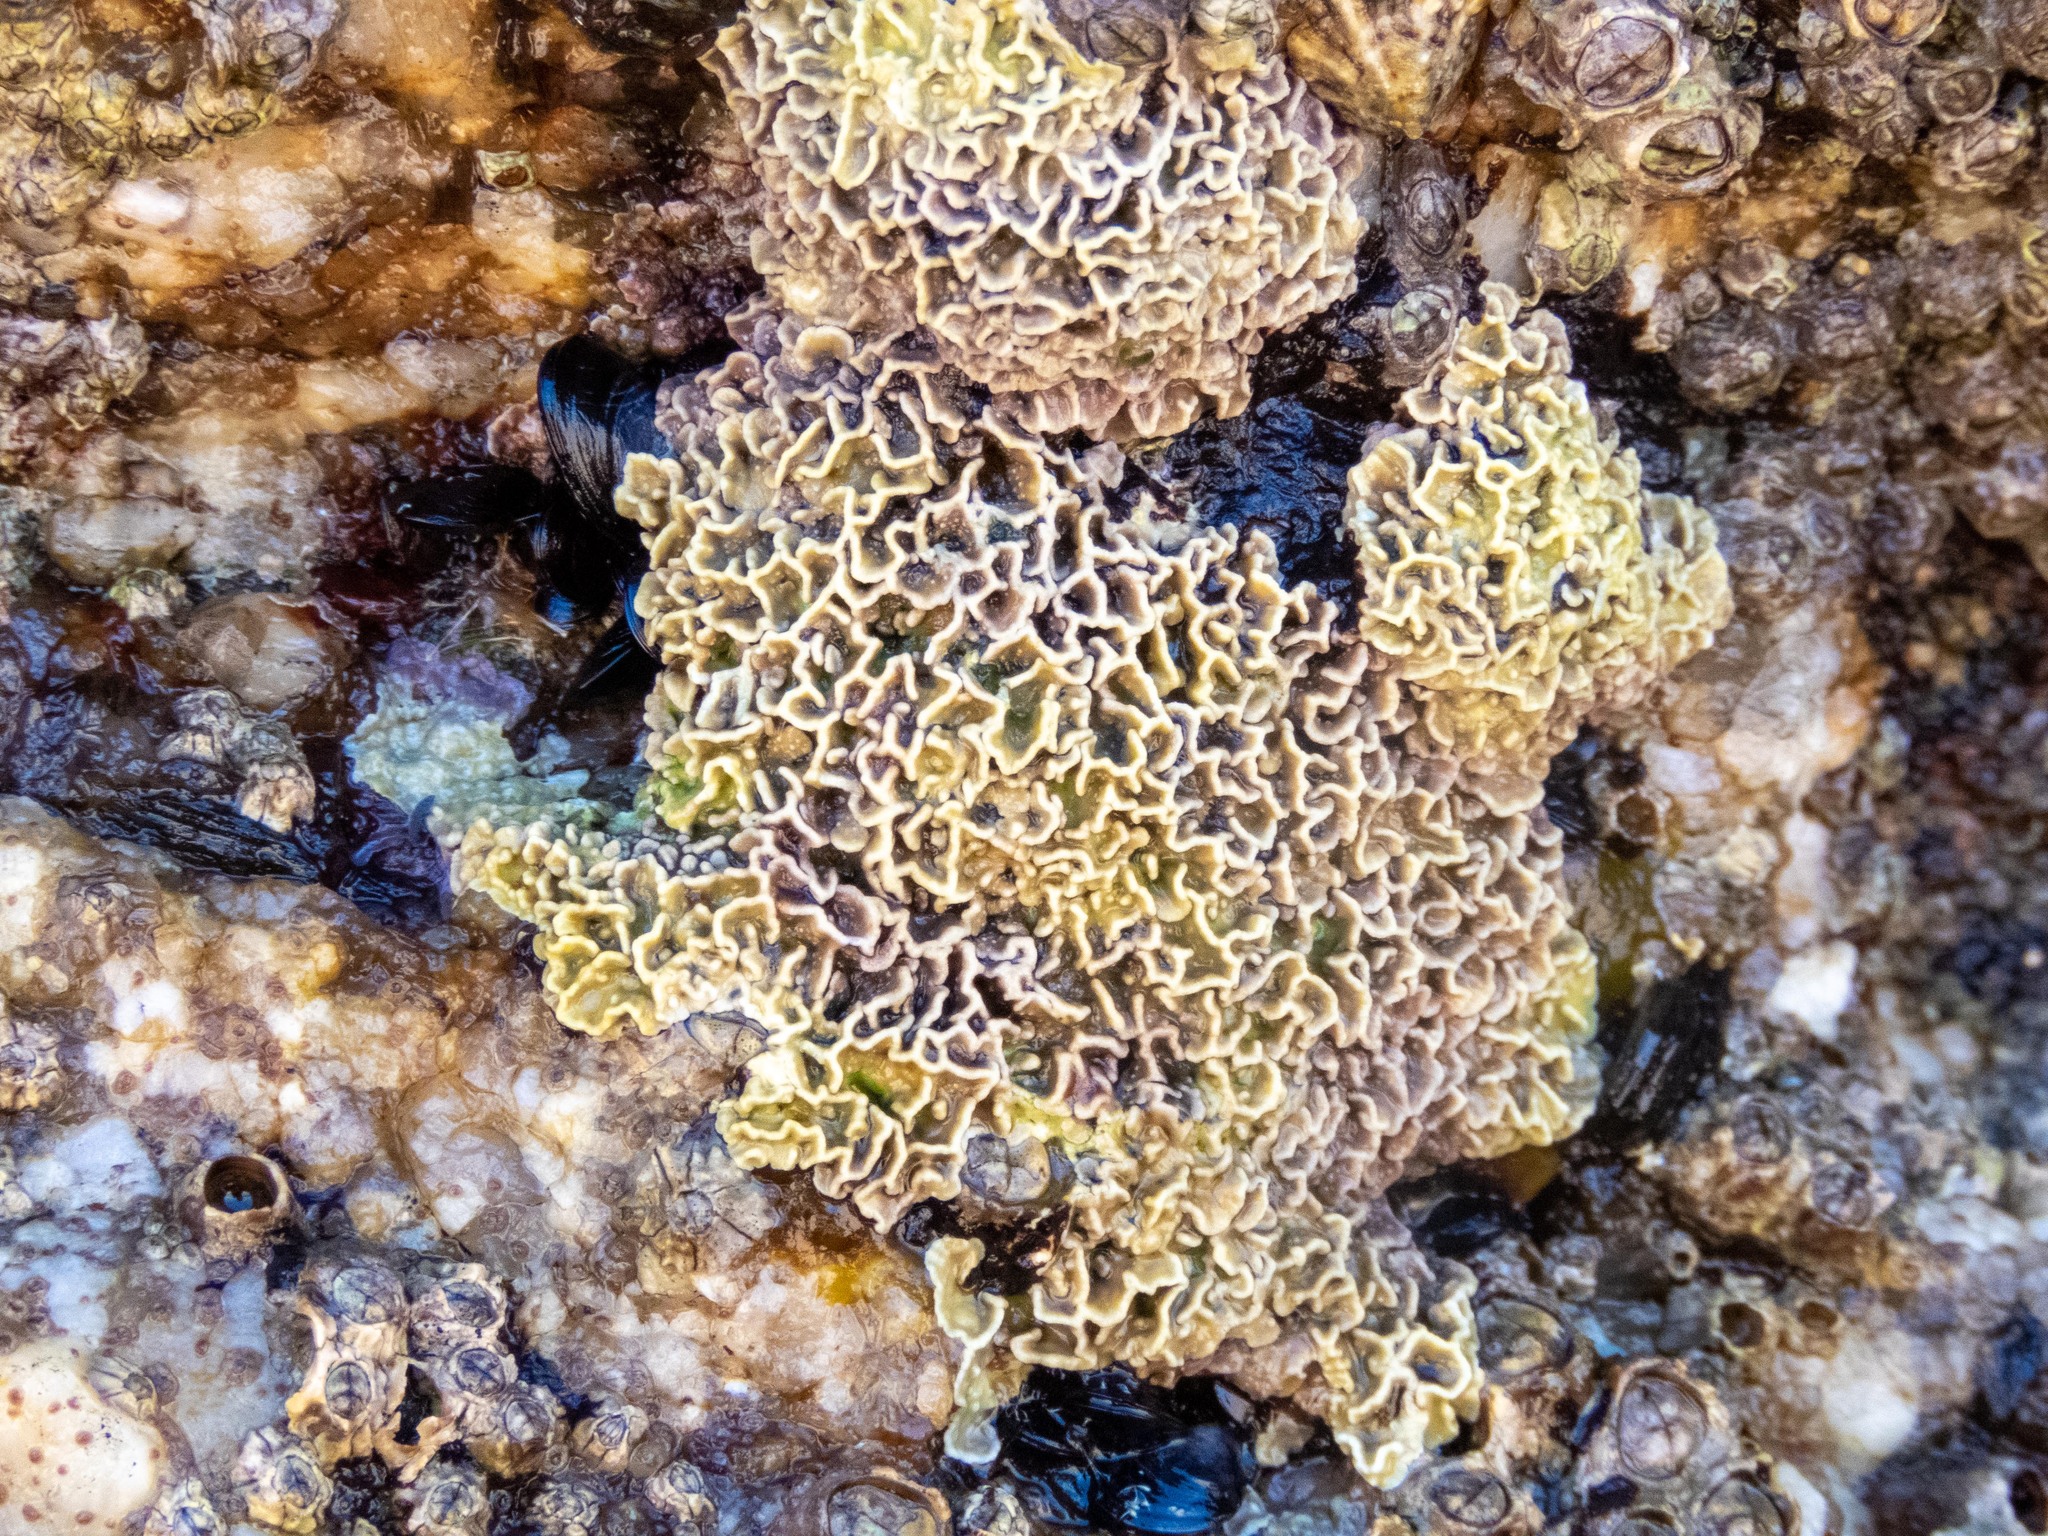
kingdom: Plantae
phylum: Rhodophyta
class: Florideophyceae
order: Corallinales
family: Lithophyllaceae
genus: Lithophyllum
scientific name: Lithophyllum byssoides
